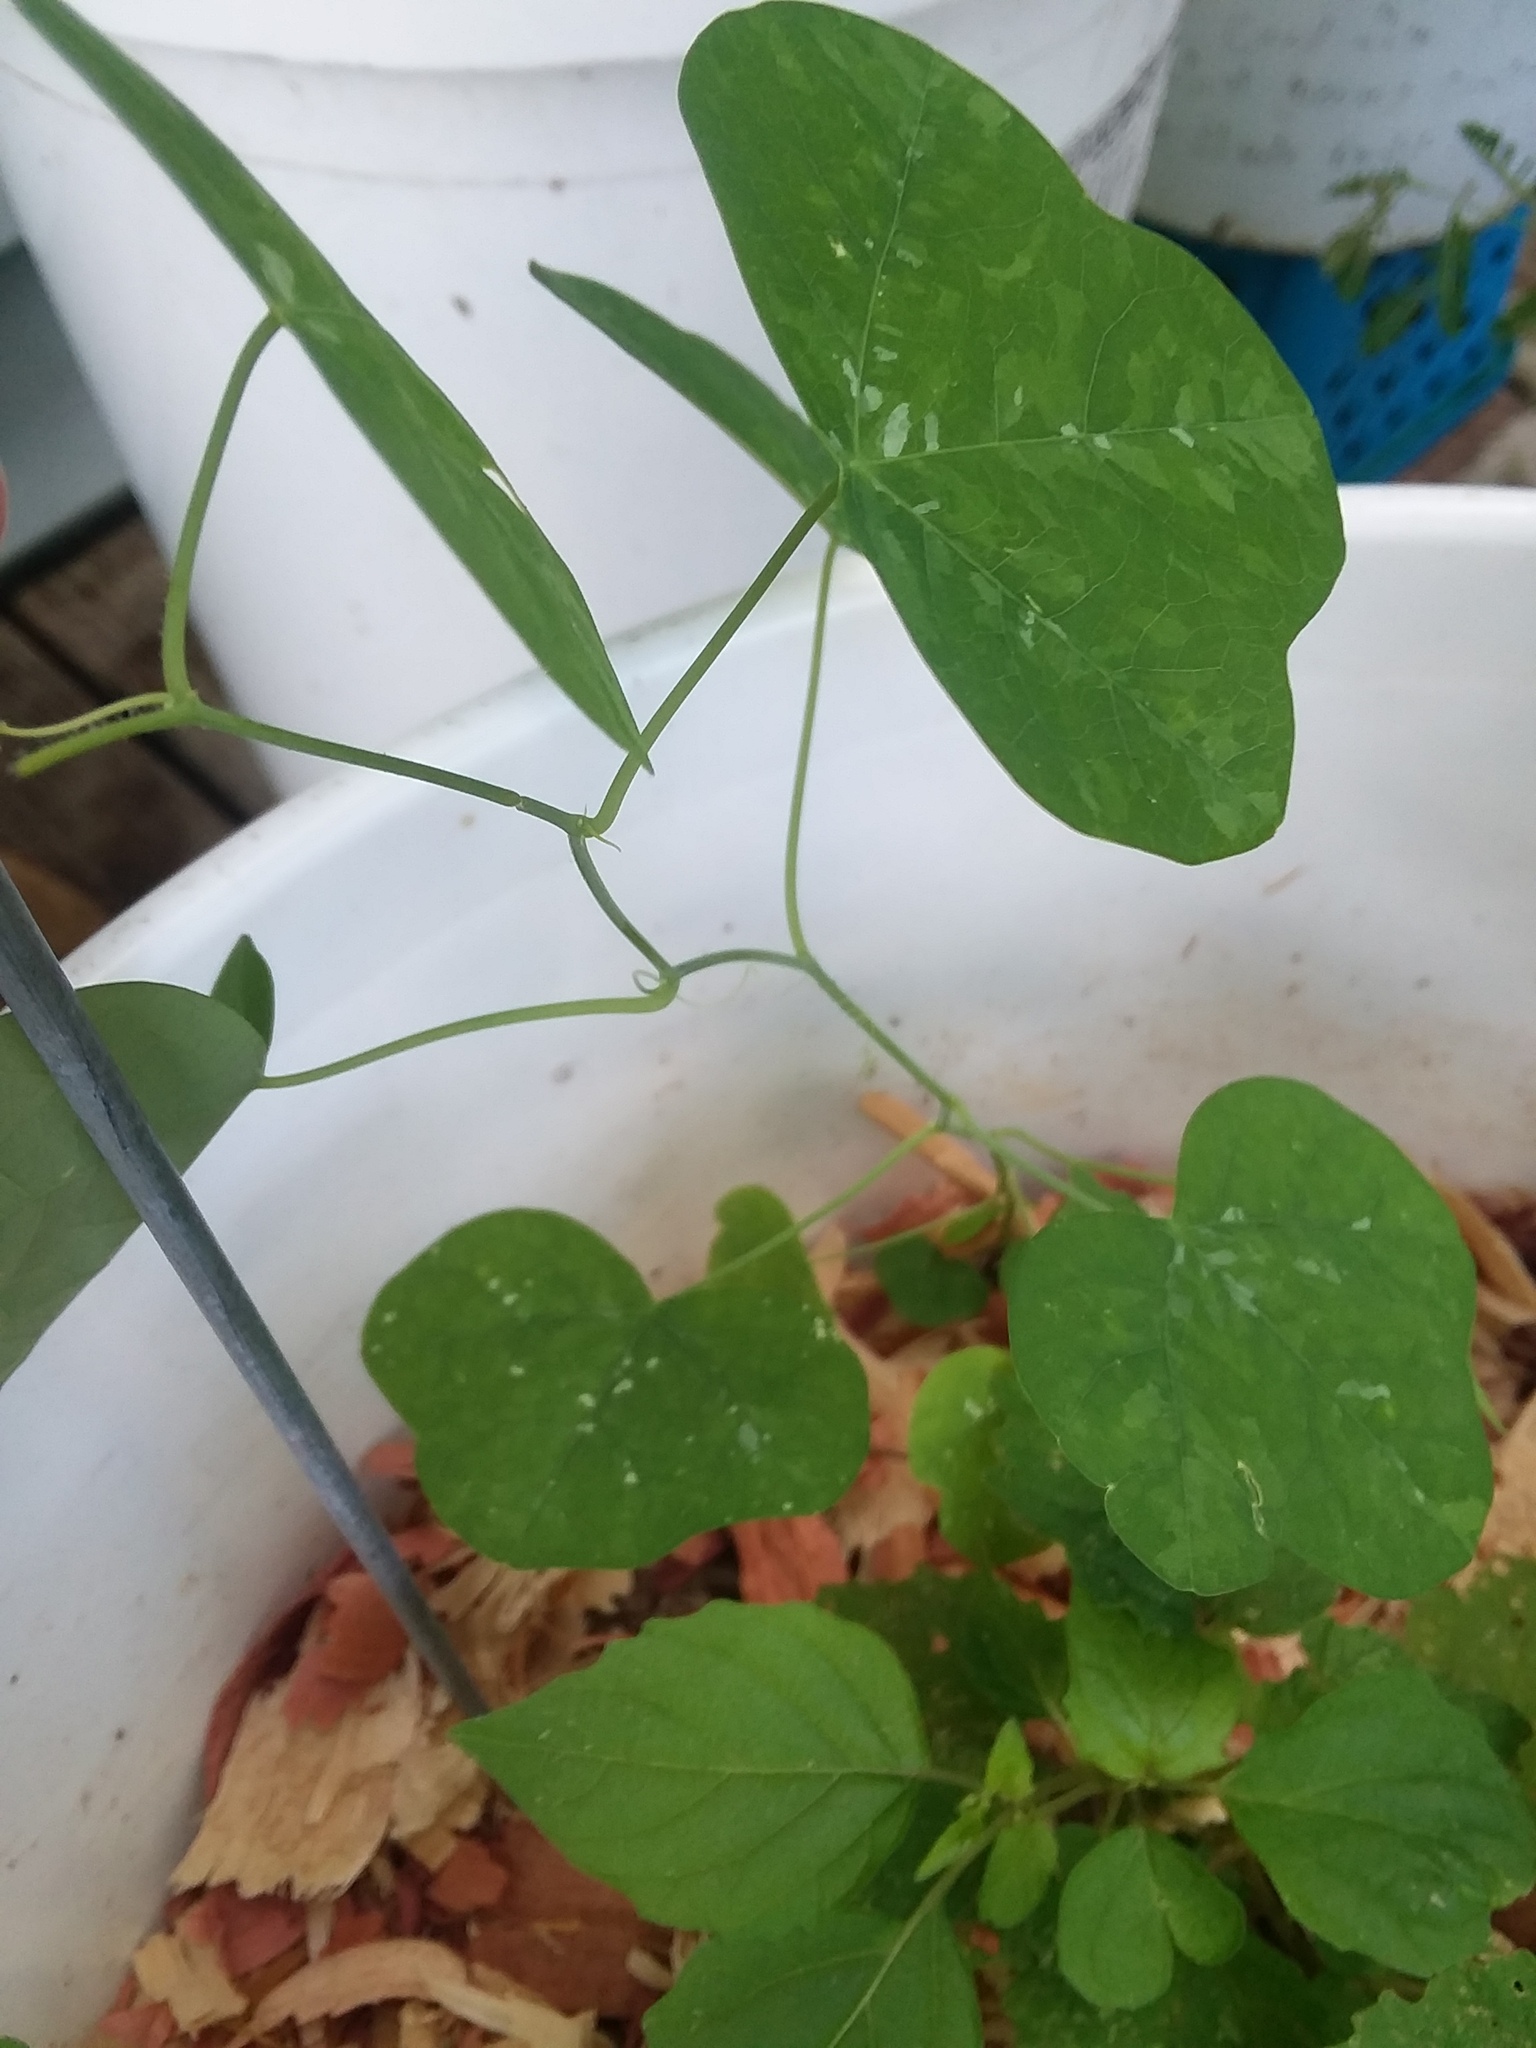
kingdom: Plantae
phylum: Tracheophyta
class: Magnoliopsida
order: Malpighiales
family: Passifloraceae
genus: Passiflora
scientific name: Passiflora lutea
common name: Yellow passionflower
